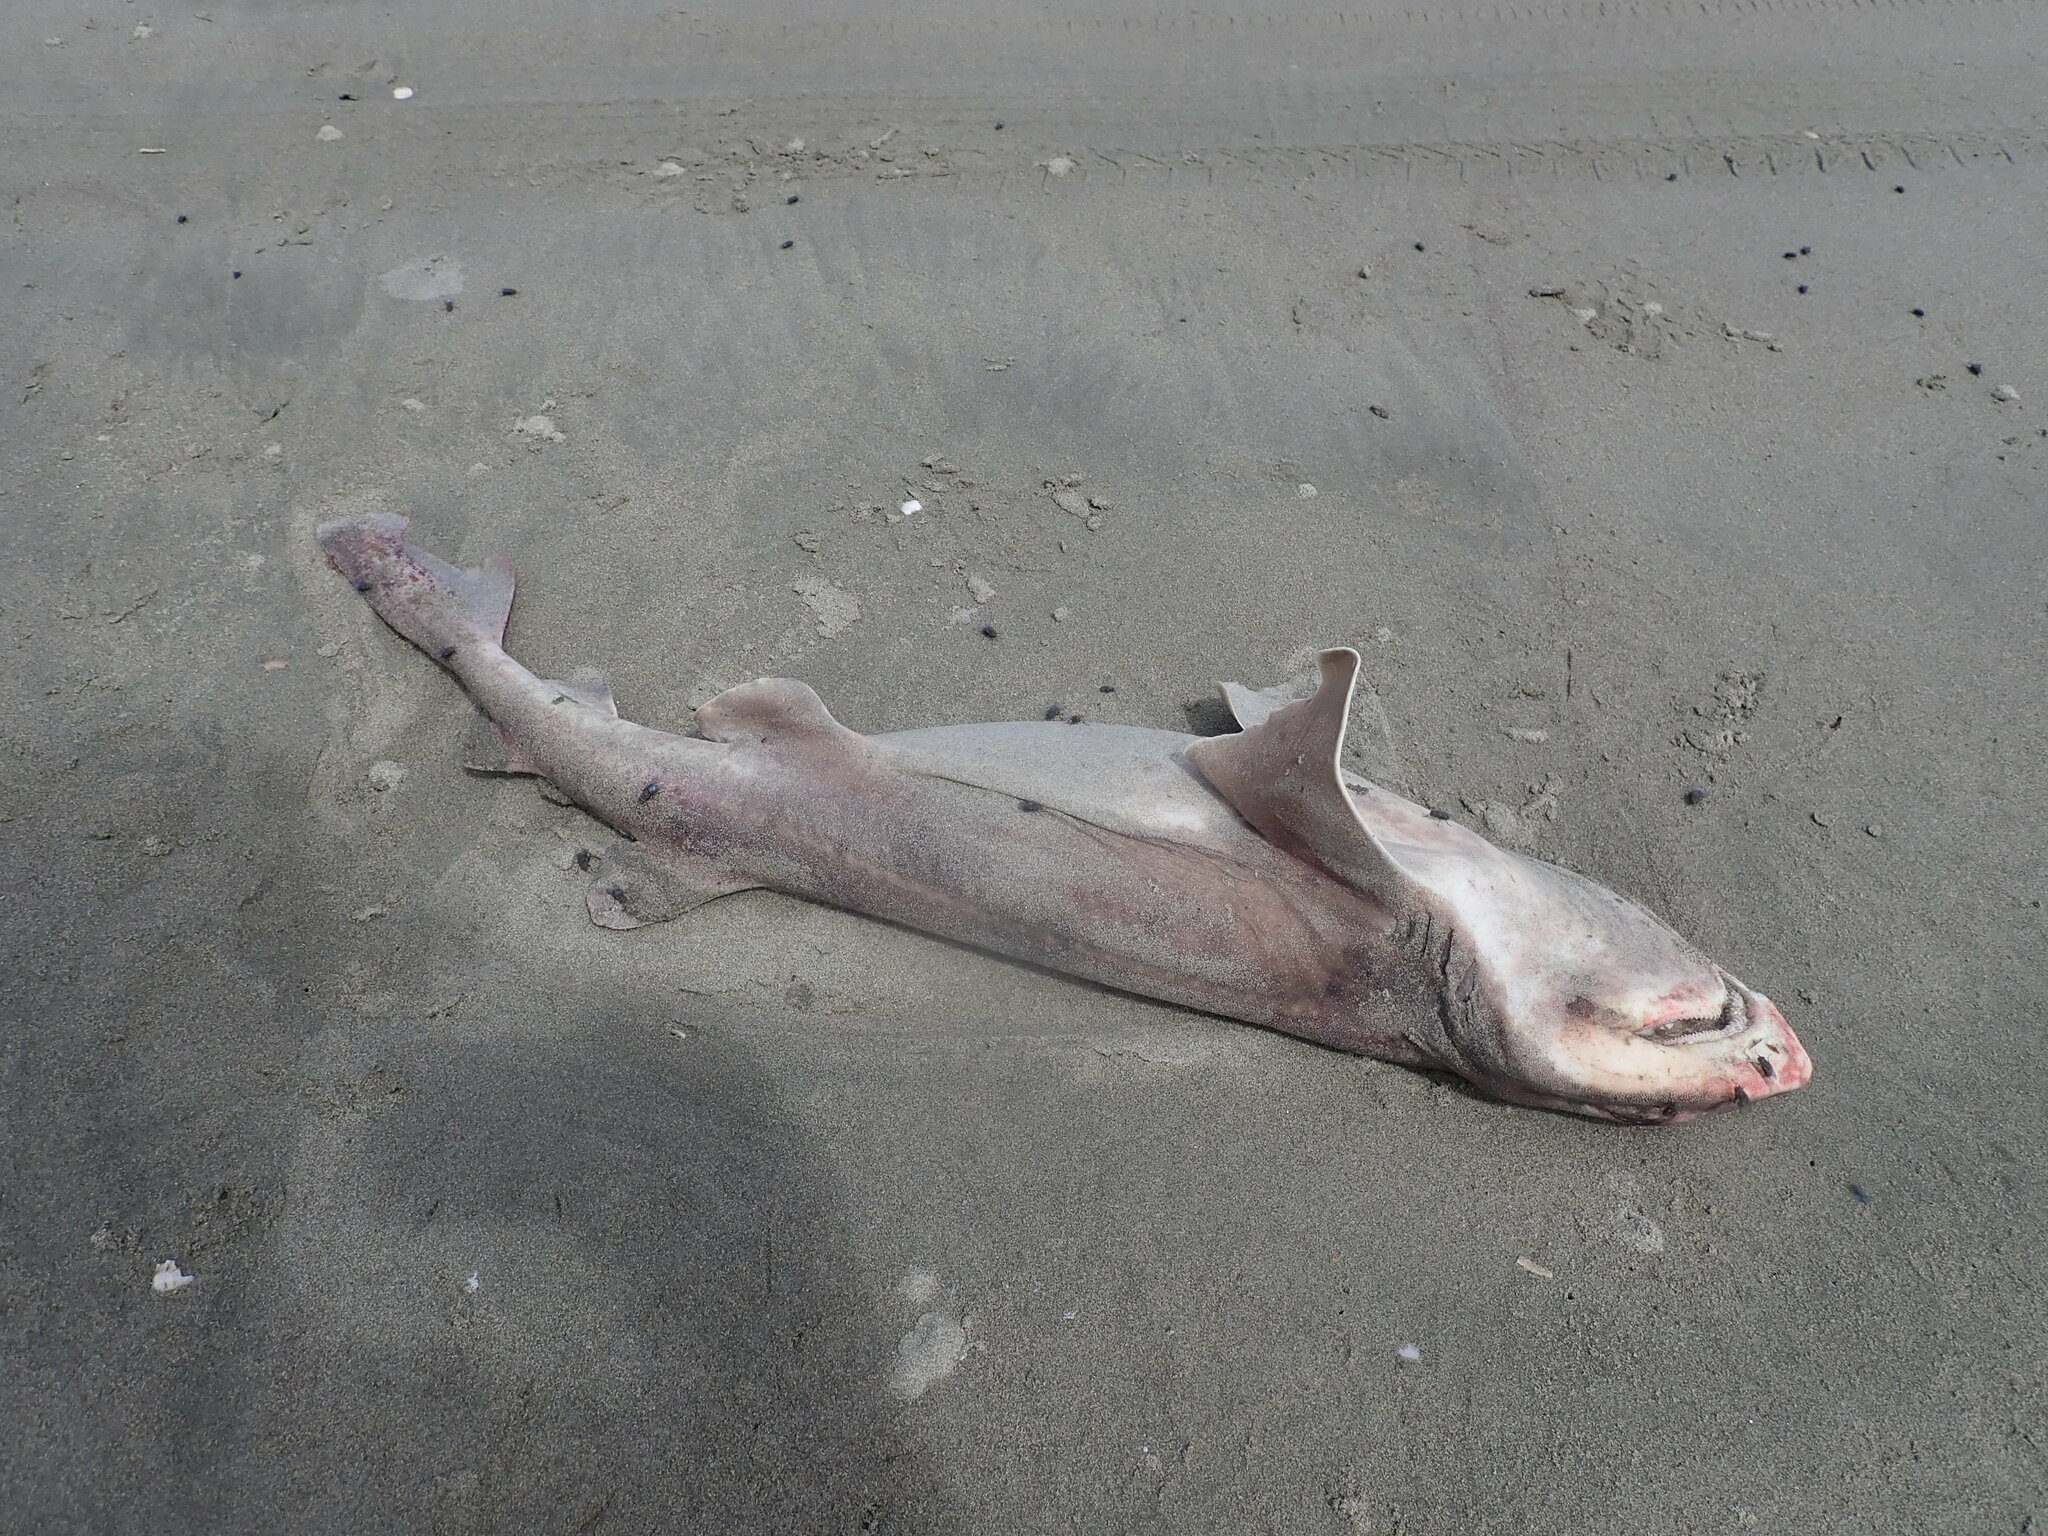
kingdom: Animalia
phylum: Chordata
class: Elasmobranchii
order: Carcharhiniformes
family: Scyliorhinidae
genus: Cephaloscyllium
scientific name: Cephaloscyllium isabellum
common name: Carpet shark
